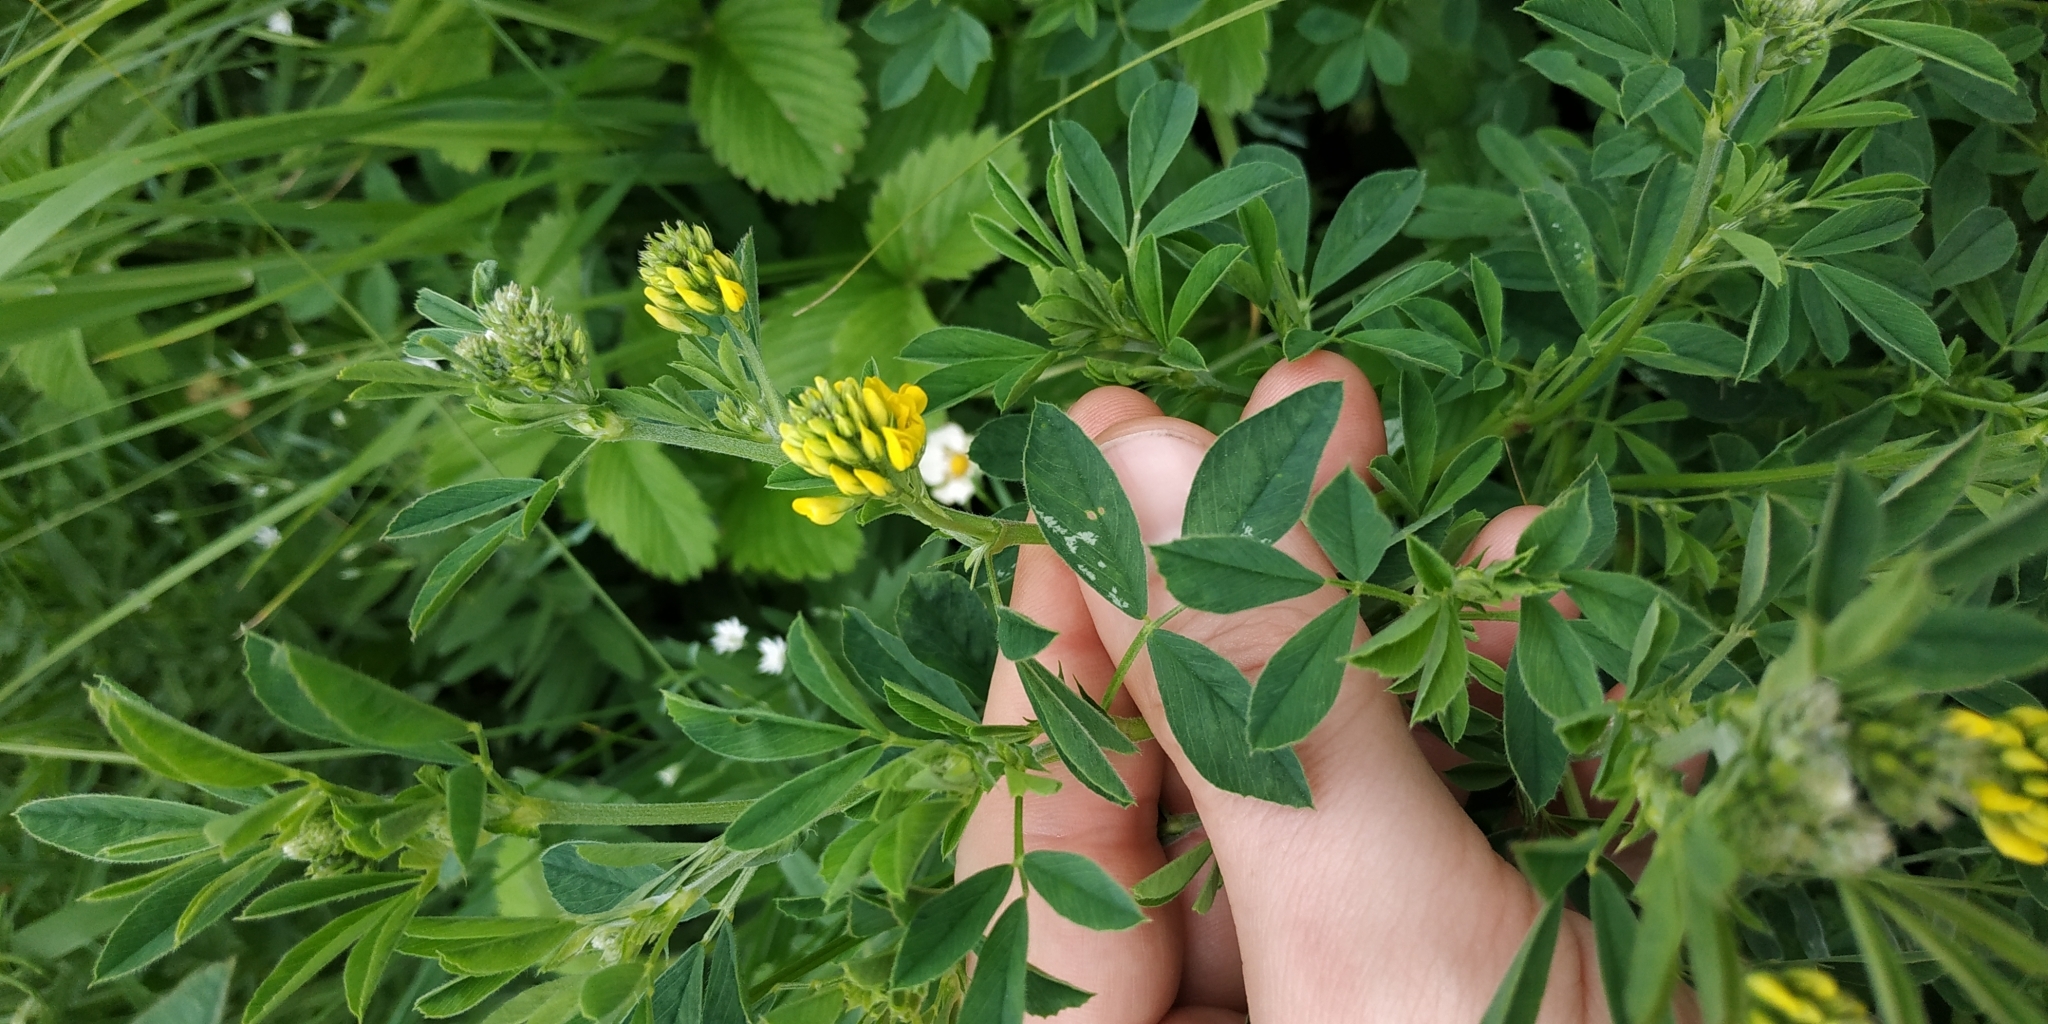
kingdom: Plantae
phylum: Tracheophyta
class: Magnoliopsida
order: Fabales
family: Fabaceae
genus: Medicago
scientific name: Medicago falcata
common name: Sickle medick
